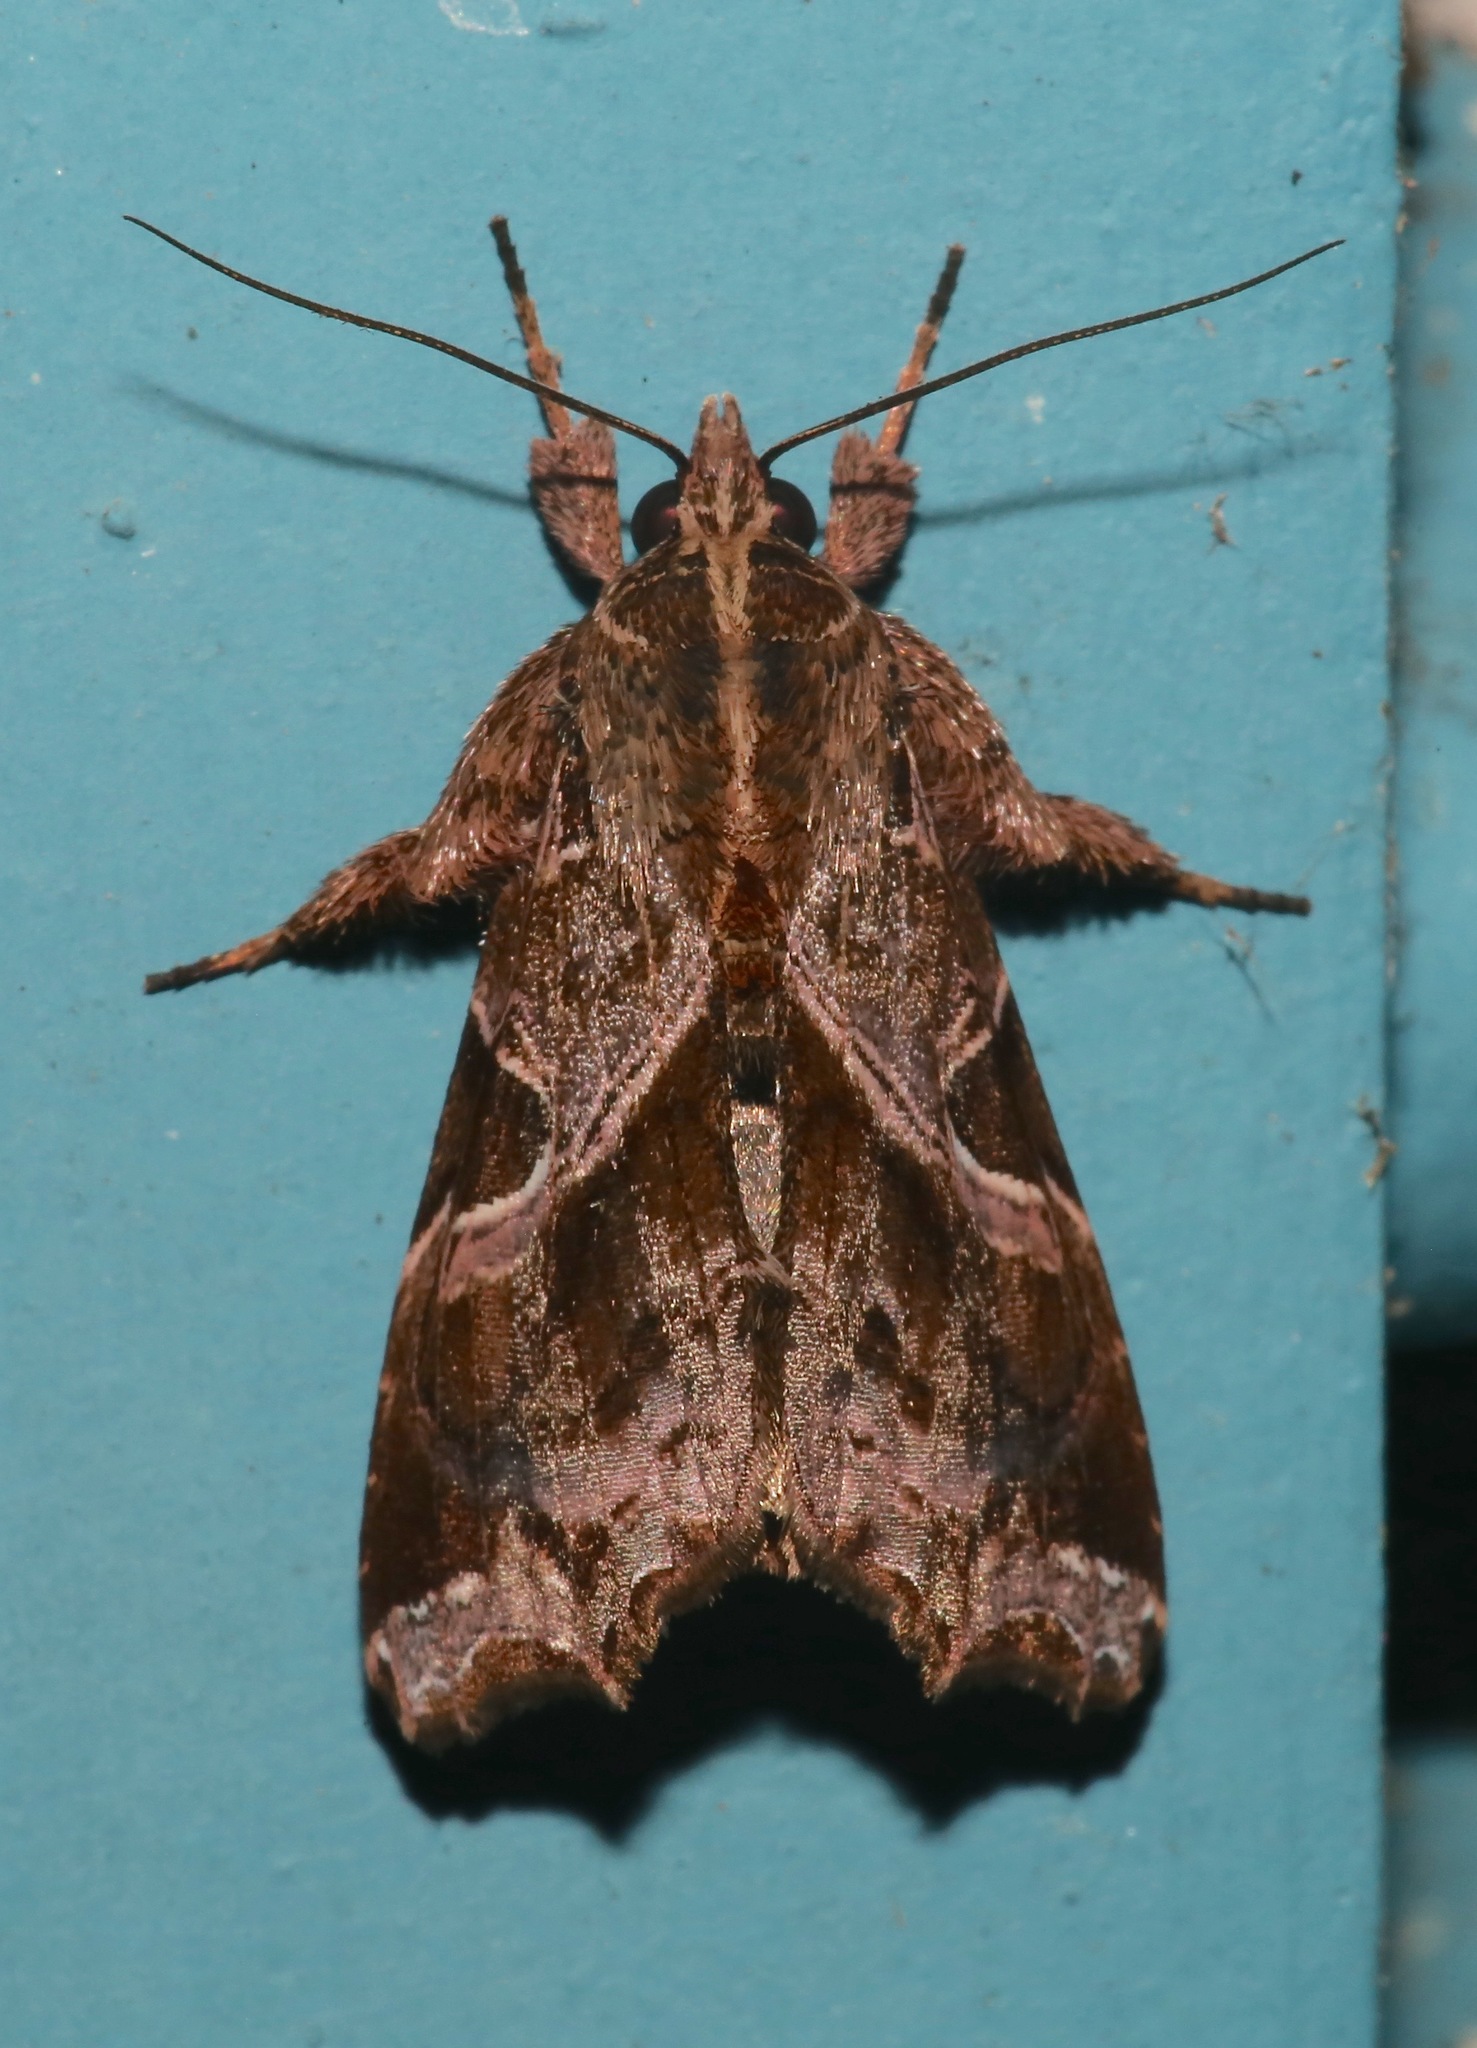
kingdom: Animalia
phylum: Arthropoda
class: Insecta
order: Lepidoptera
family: Noctuidae
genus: Callopistria
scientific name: Callopistria floridensis
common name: Florida fern moth
